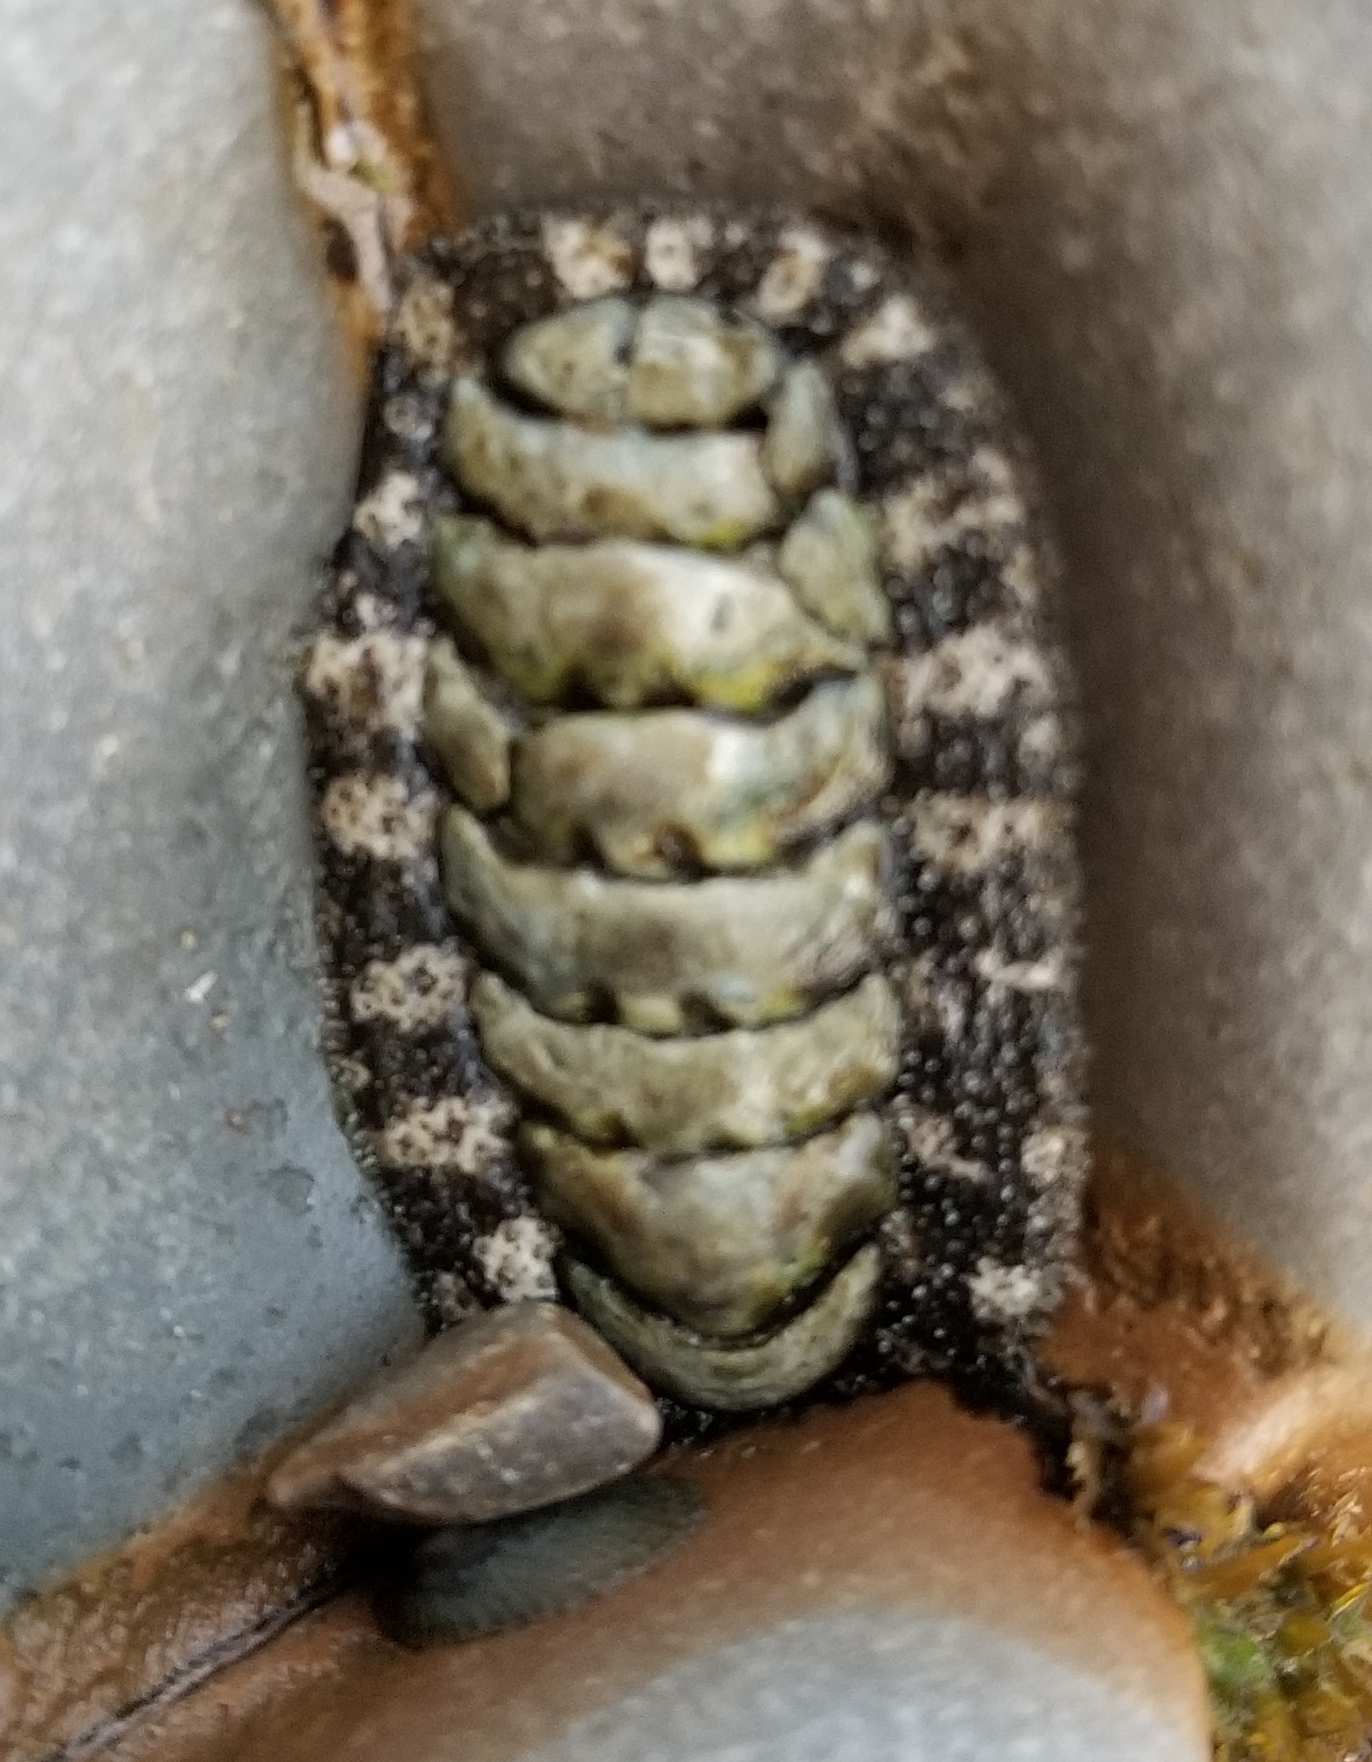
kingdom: Animalia
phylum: Mollusca
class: Polyplacophora
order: Chitonida
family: Tonicellidae
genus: Nuttallina
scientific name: Nuttallina californica
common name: California nuttall chiton
